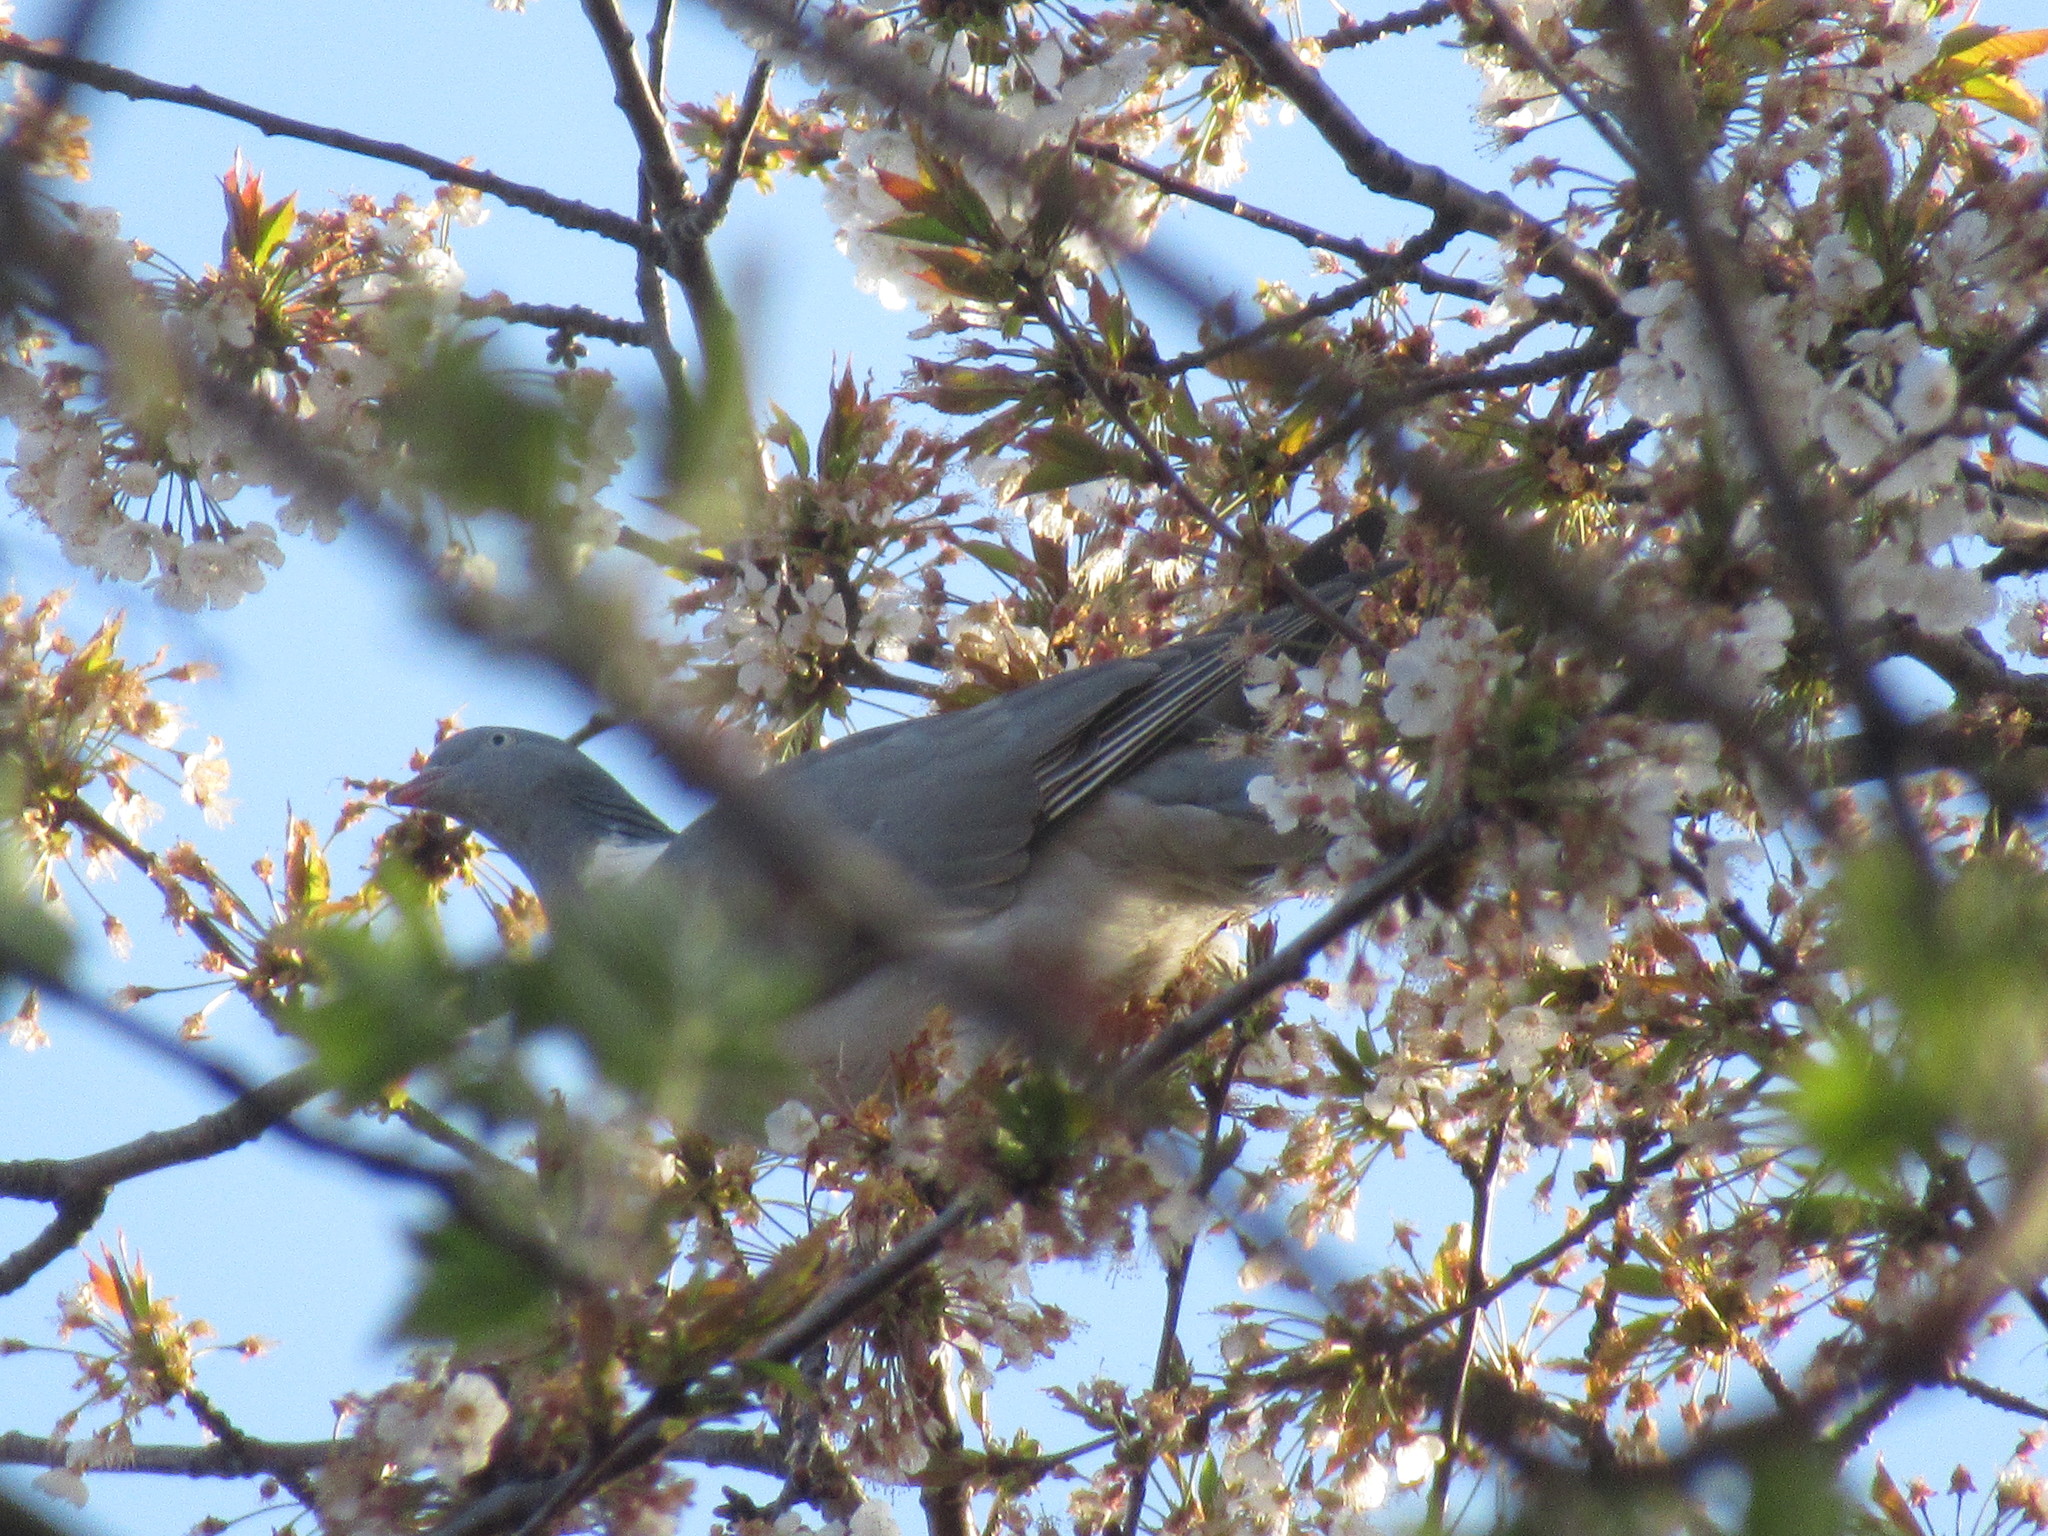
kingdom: Animalia
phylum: Chordata
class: Aves
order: Columbiformes
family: Columbidae
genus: Columba
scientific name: Columba palumbus
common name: Common wood pigeon
